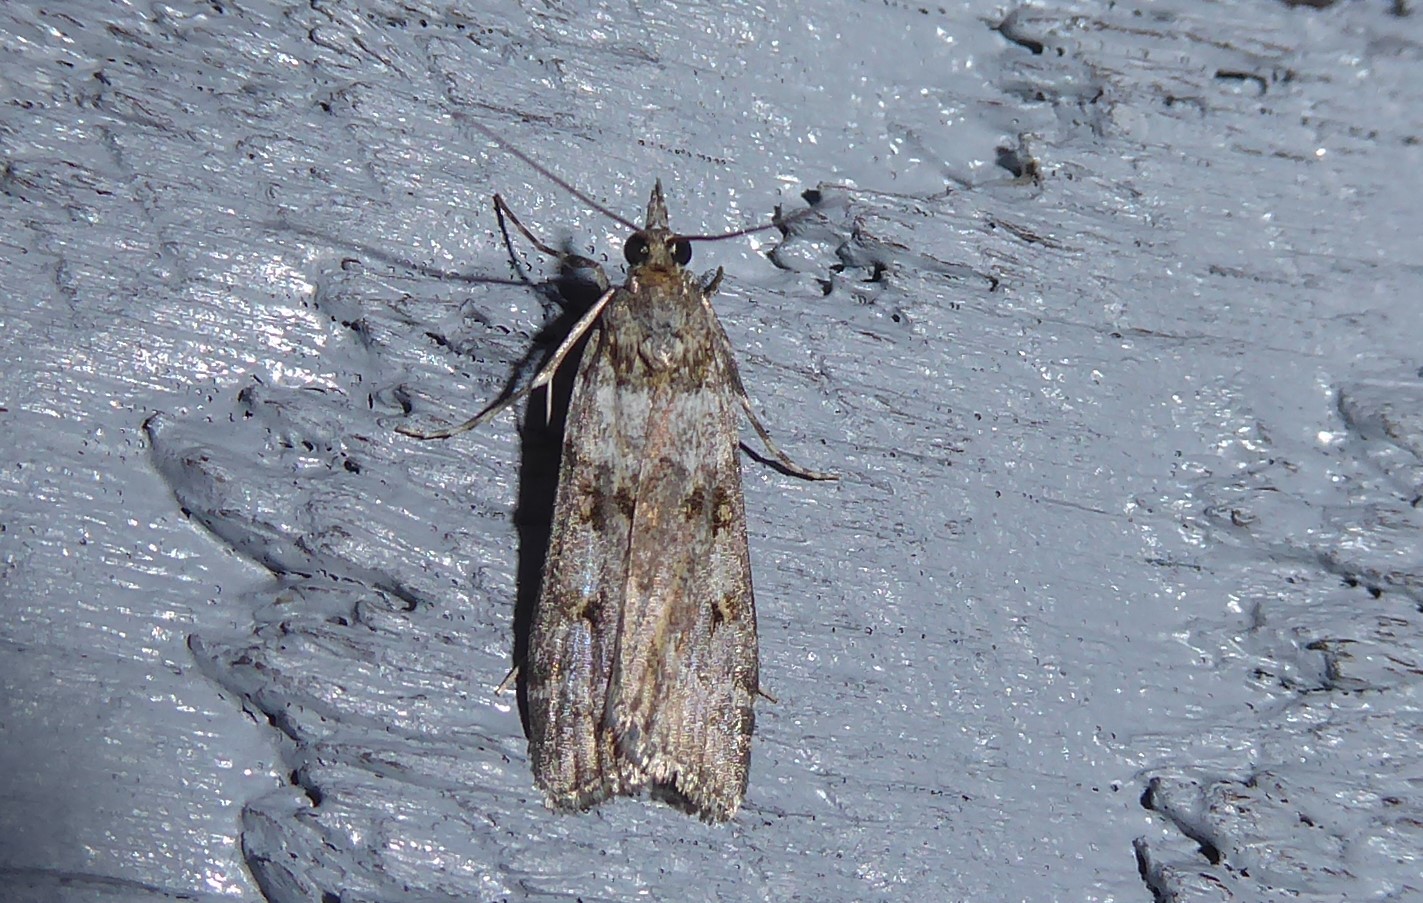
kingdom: Animalia
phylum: Arthropoda
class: Insecta
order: Lepidoptera
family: Crambidae
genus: Eudonia
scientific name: Eudonia diphtheralis
